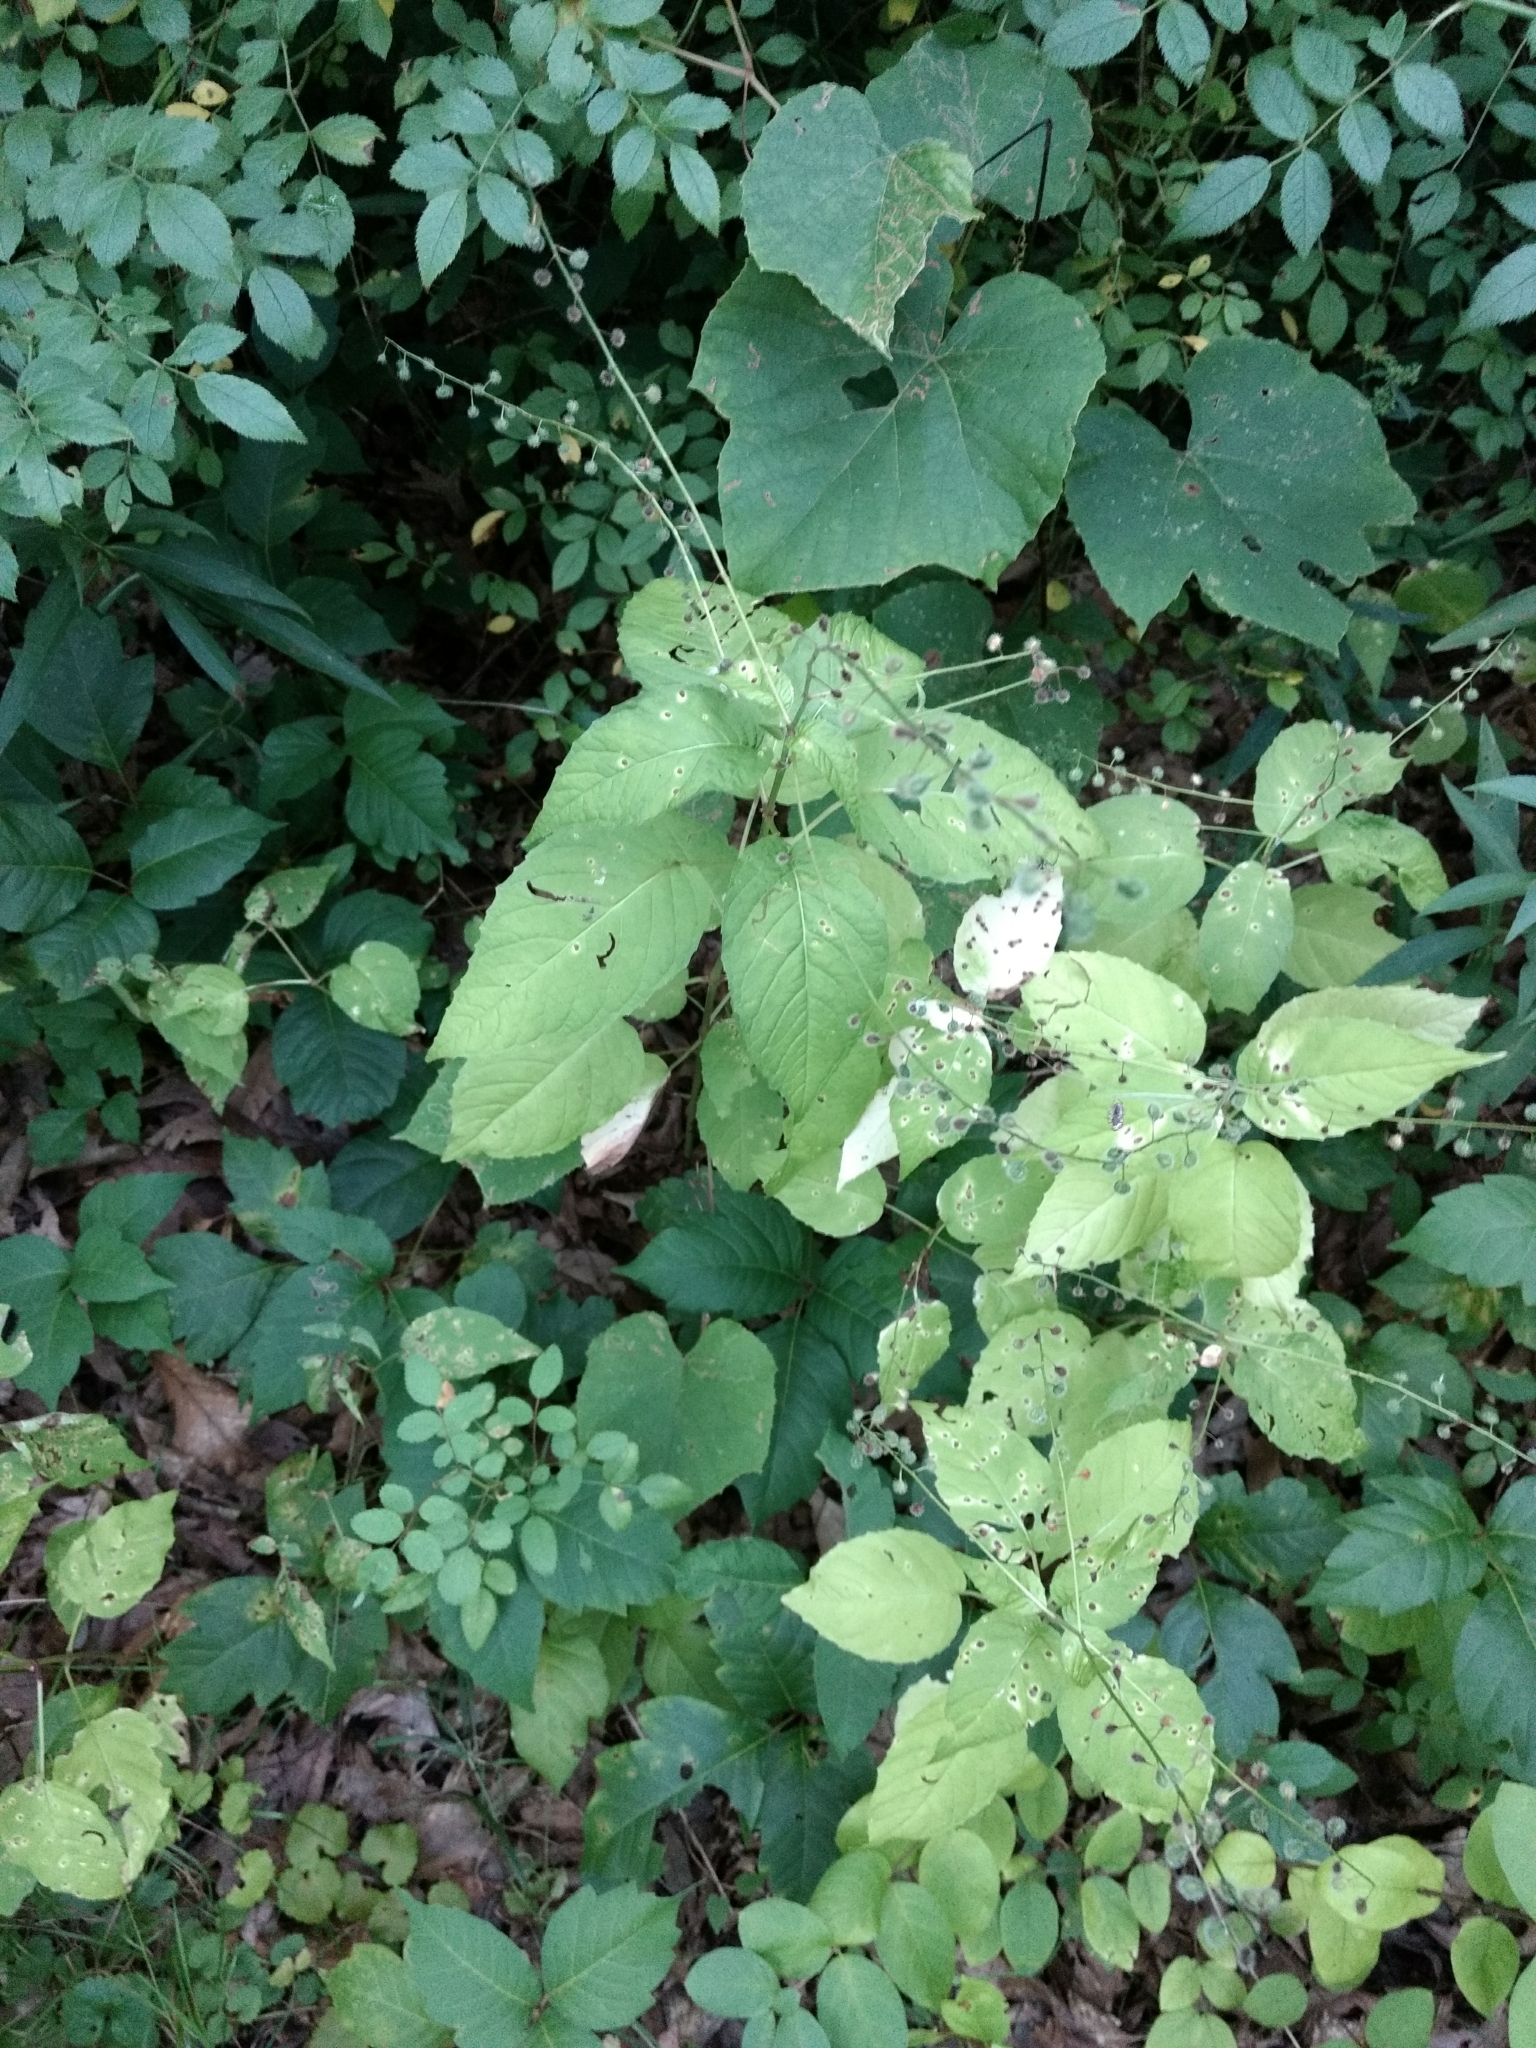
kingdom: Plantae
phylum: Tracheophyta
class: Magnoliopsida
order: Myrtales
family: Onagraceae
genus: Circaea
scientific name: Circaea canadensis
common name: Broad-leaved enchanter's nightshade
